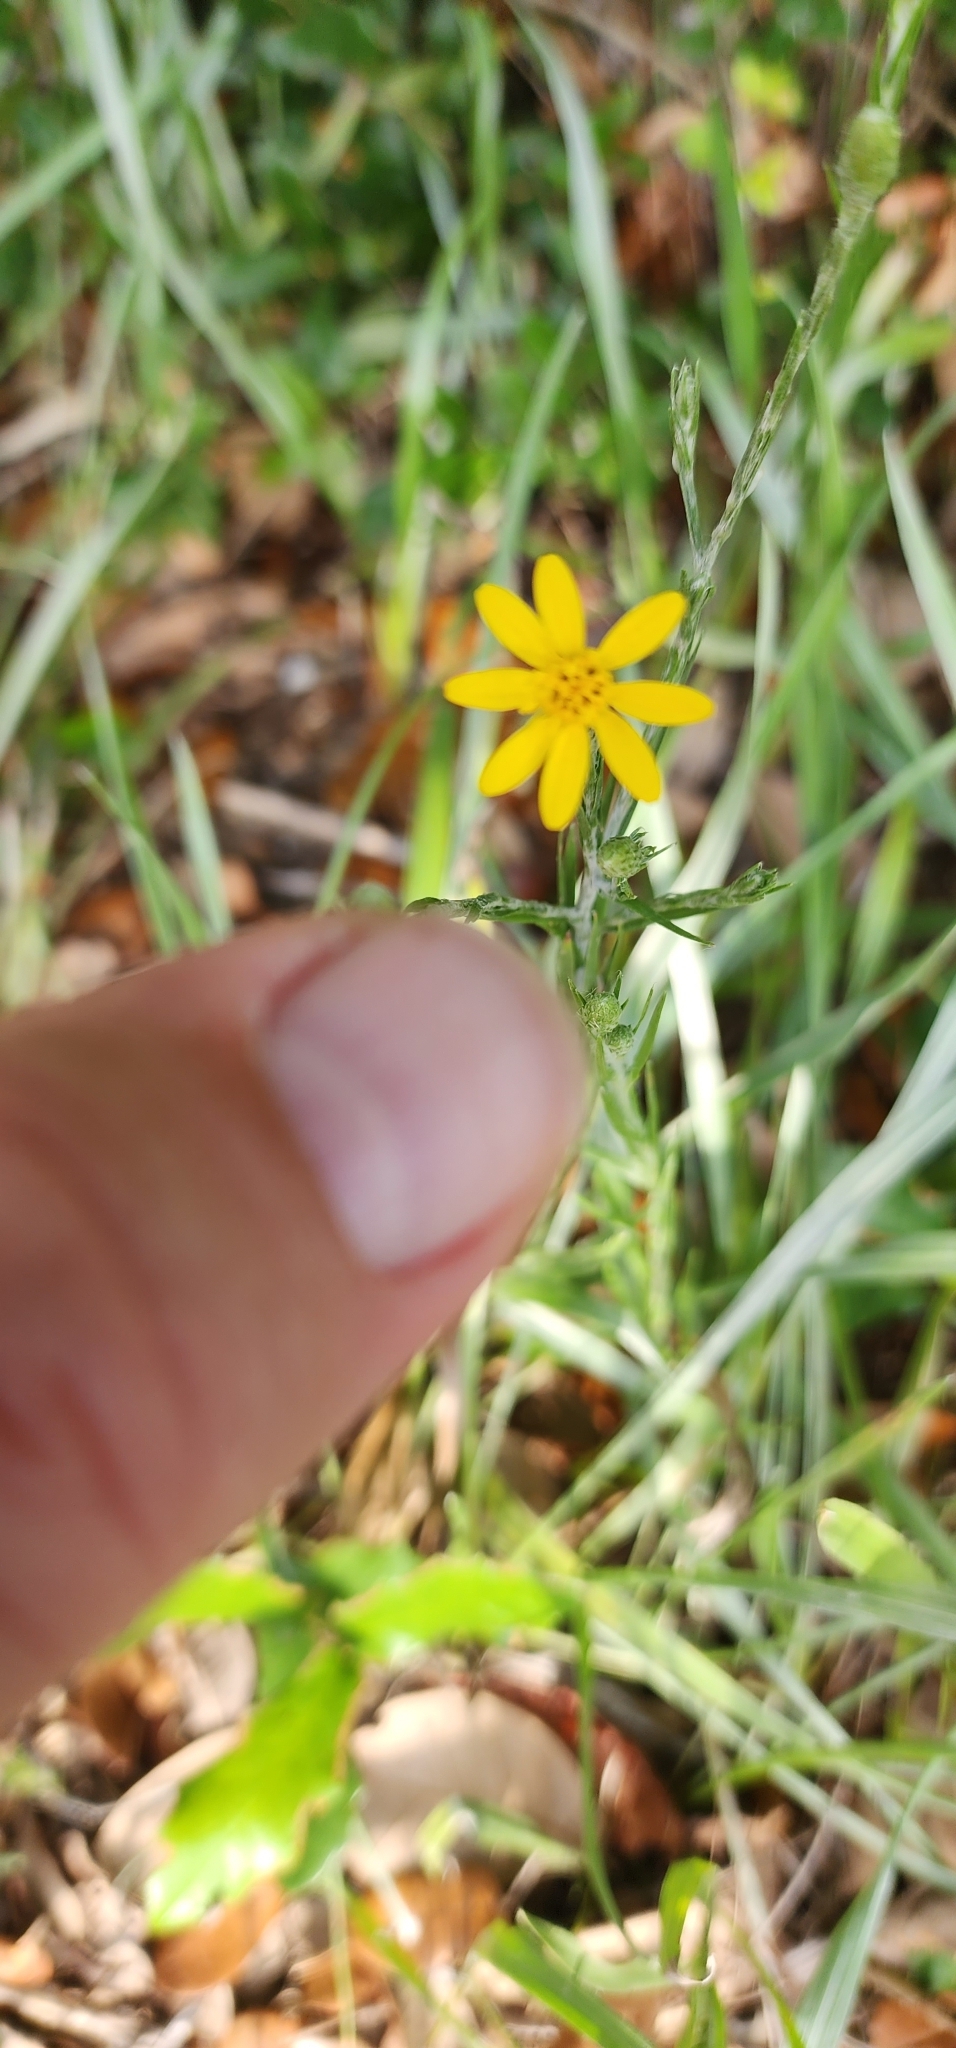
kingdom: Plantae
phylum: Tracheophyta
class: Magnoliopsida
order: Asterales
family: Asteraceae
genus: Pityopsis
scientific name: Pityopsis graminifolia
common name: Grass-leaf golden-aster
